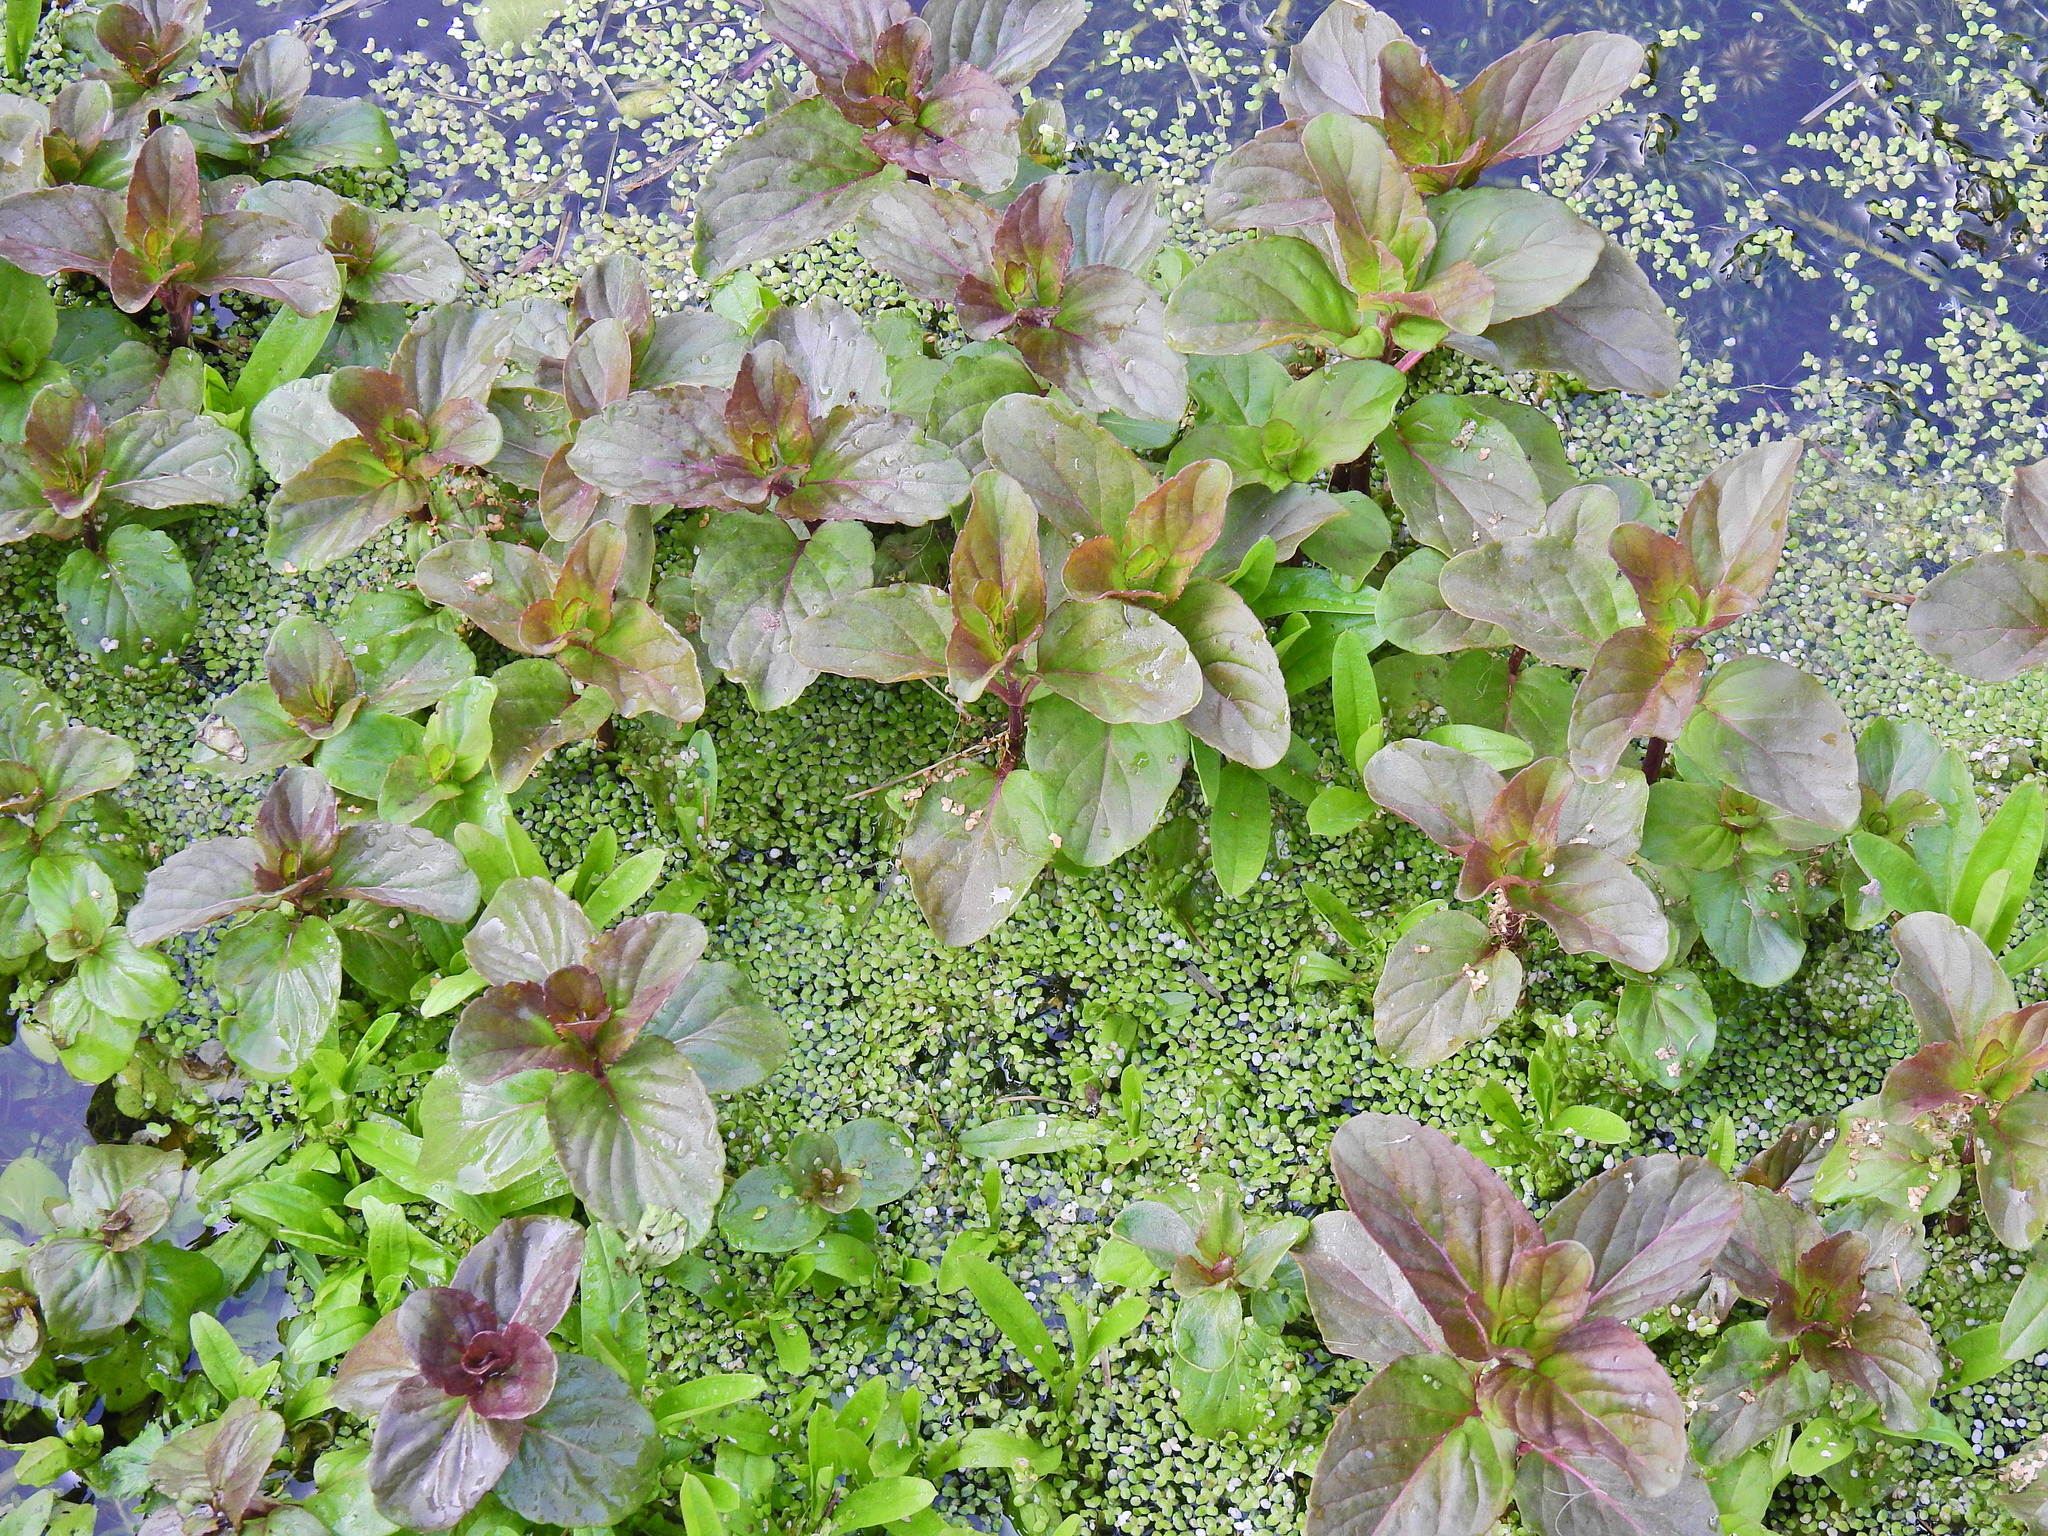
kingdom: Plantae
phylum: Tracheophyta
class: Magnoliopsida
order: Lamiales
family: Lamiaceae
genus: Mentha
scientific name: Mentha aquatica
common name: Water mint
